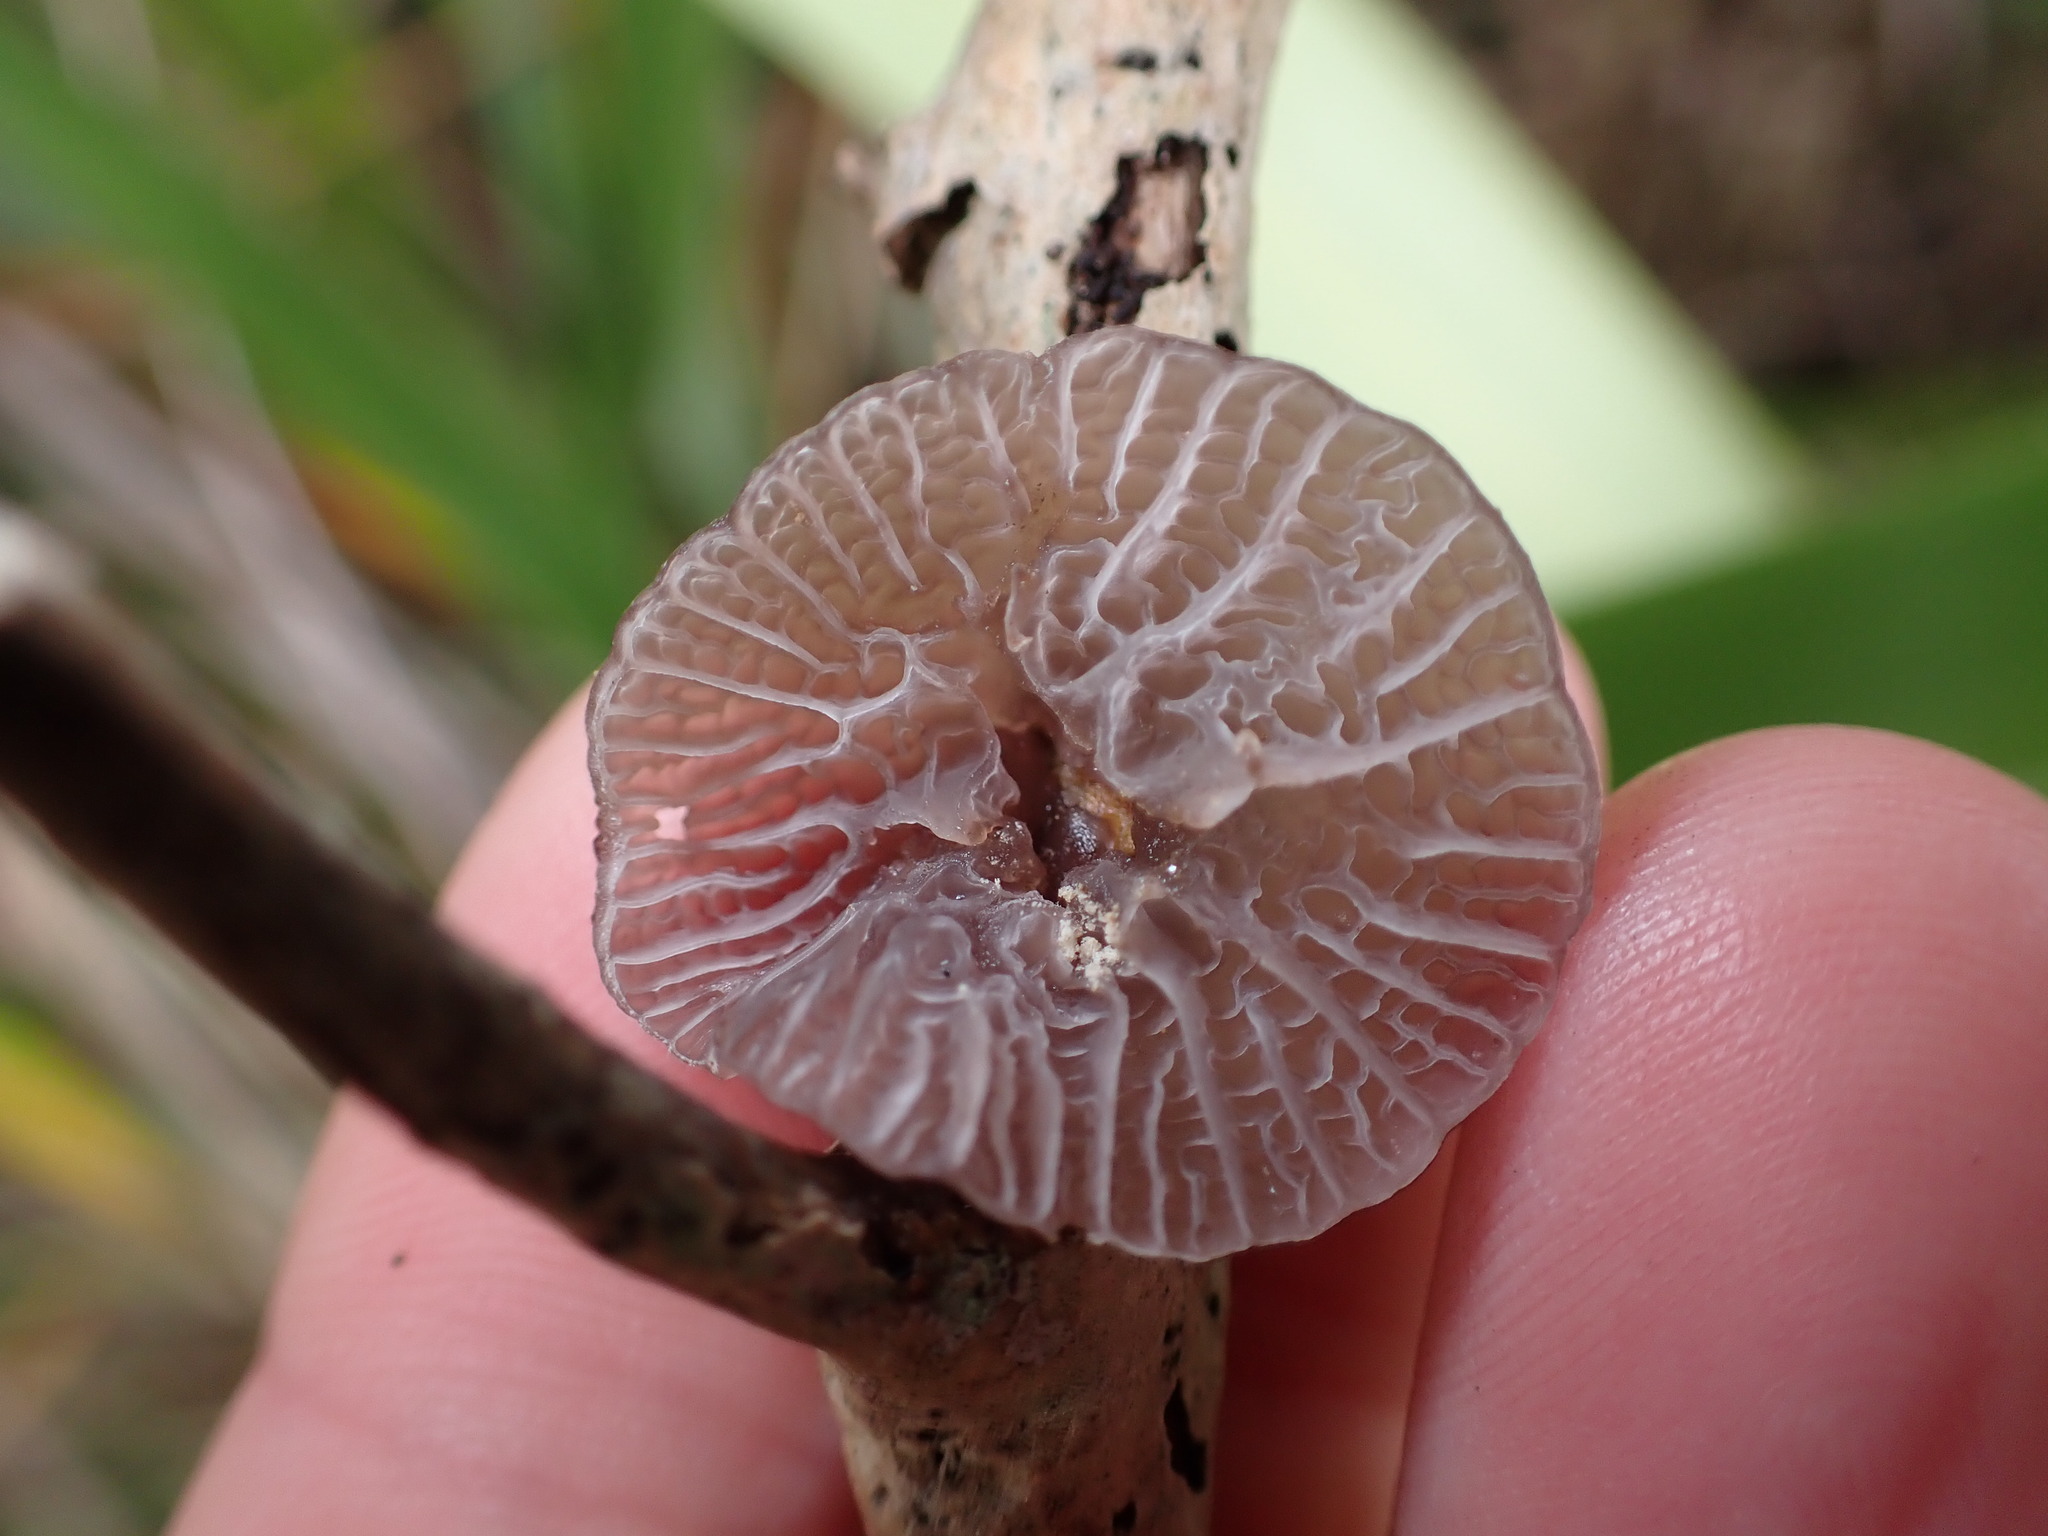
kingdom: Fungi
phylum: Basidiomycota
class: Agaricomycetes
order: Agaricales
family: Marasmiaceae
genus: Campanella
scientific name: Campanella
